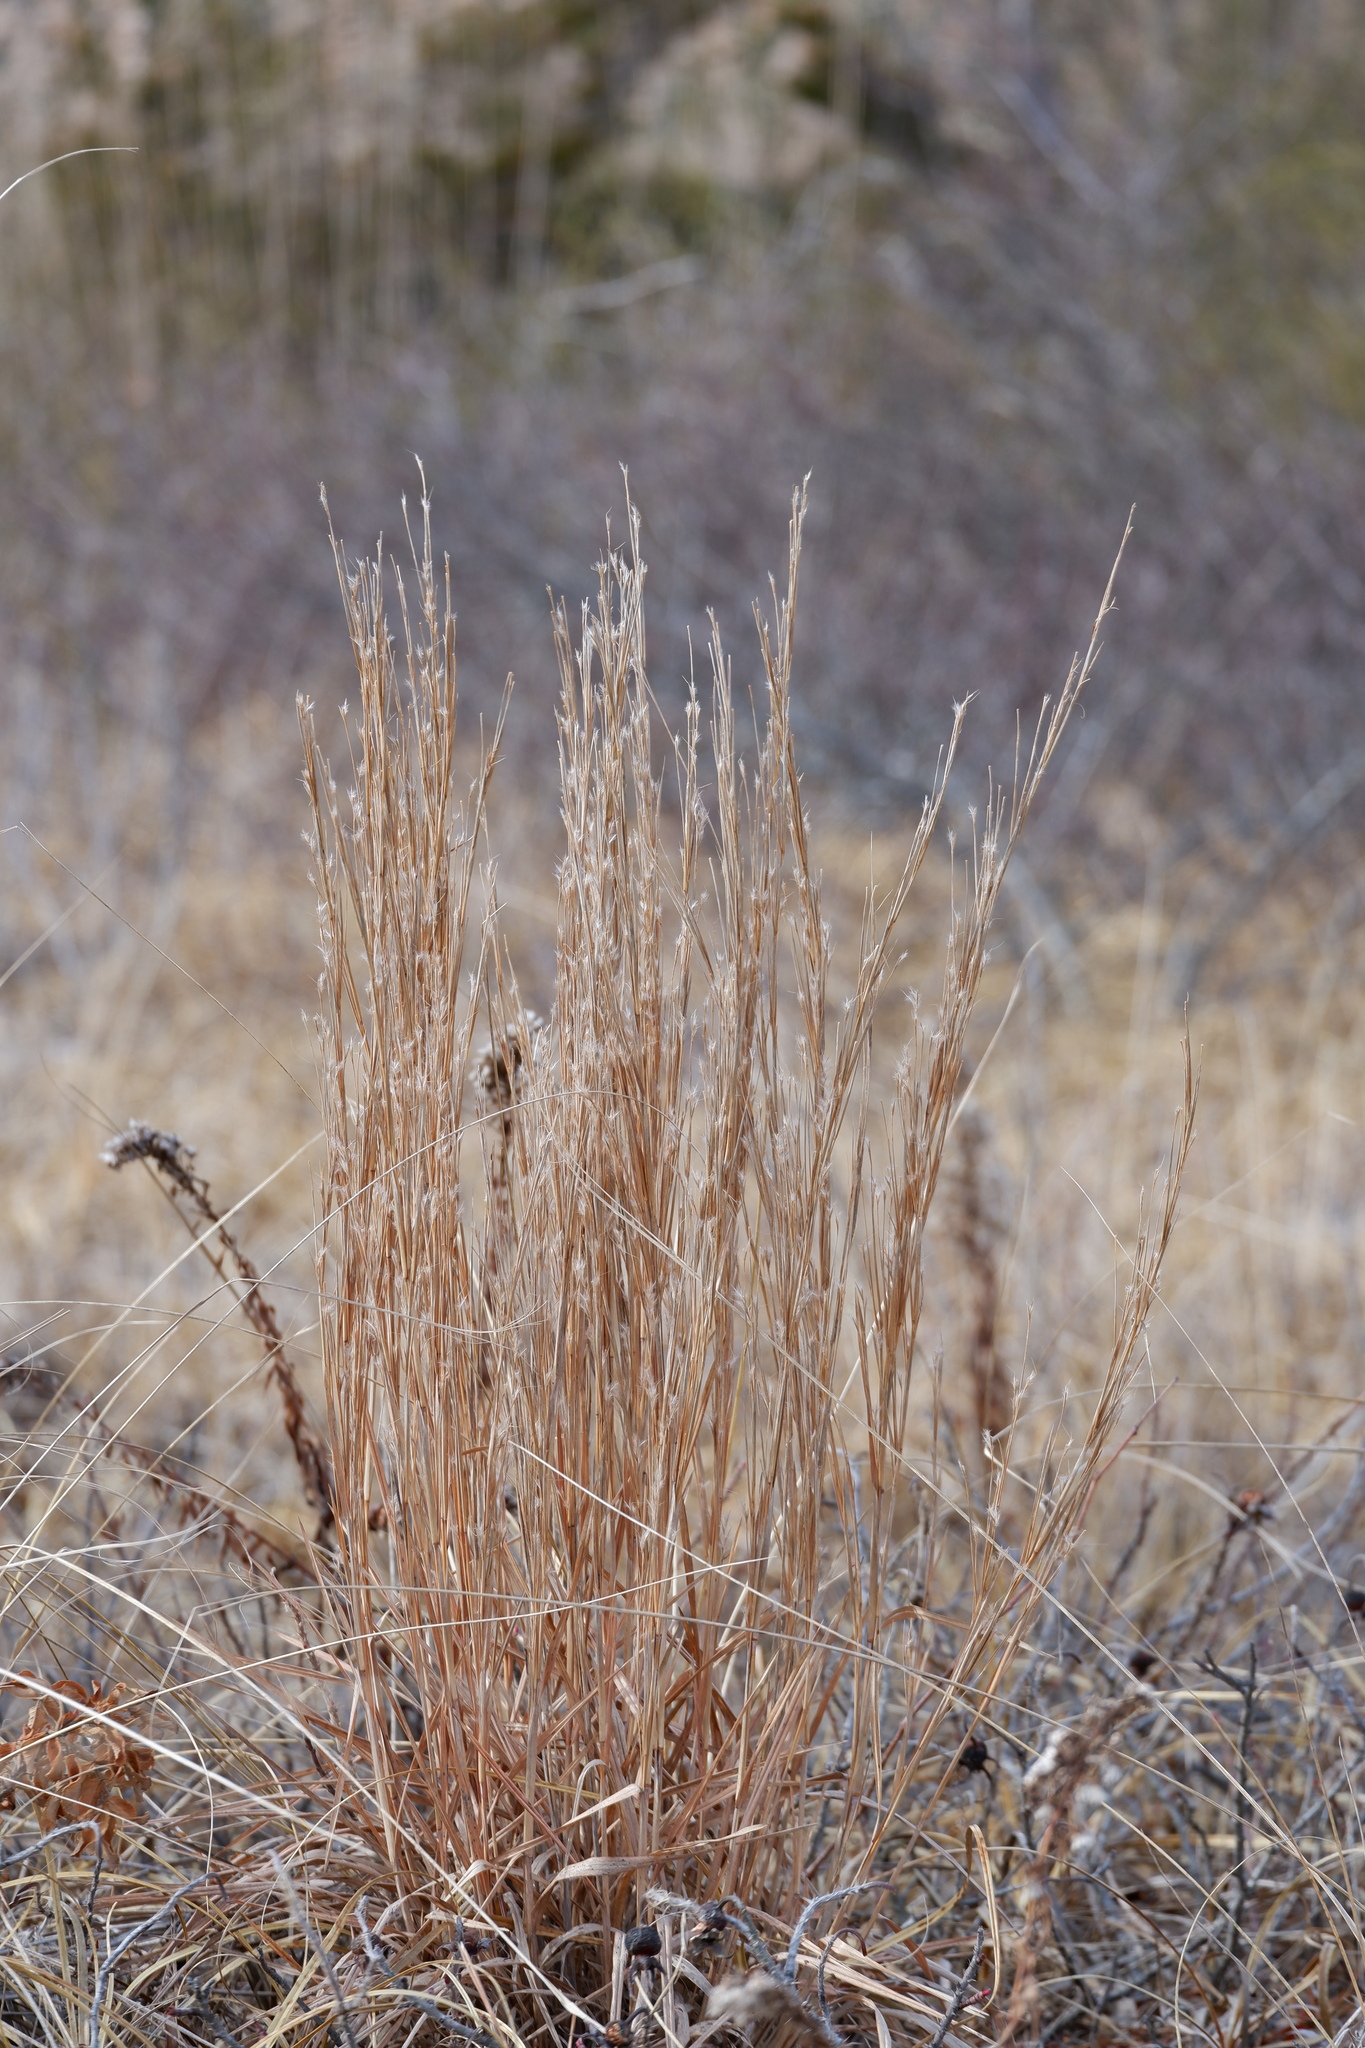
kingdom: Plantae
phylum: Tracheophyta
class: Liliopsida
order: Poales
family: Poaceae
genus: Schizachyrium
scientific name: Schizachyrium scoparium
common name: Little bluestem
